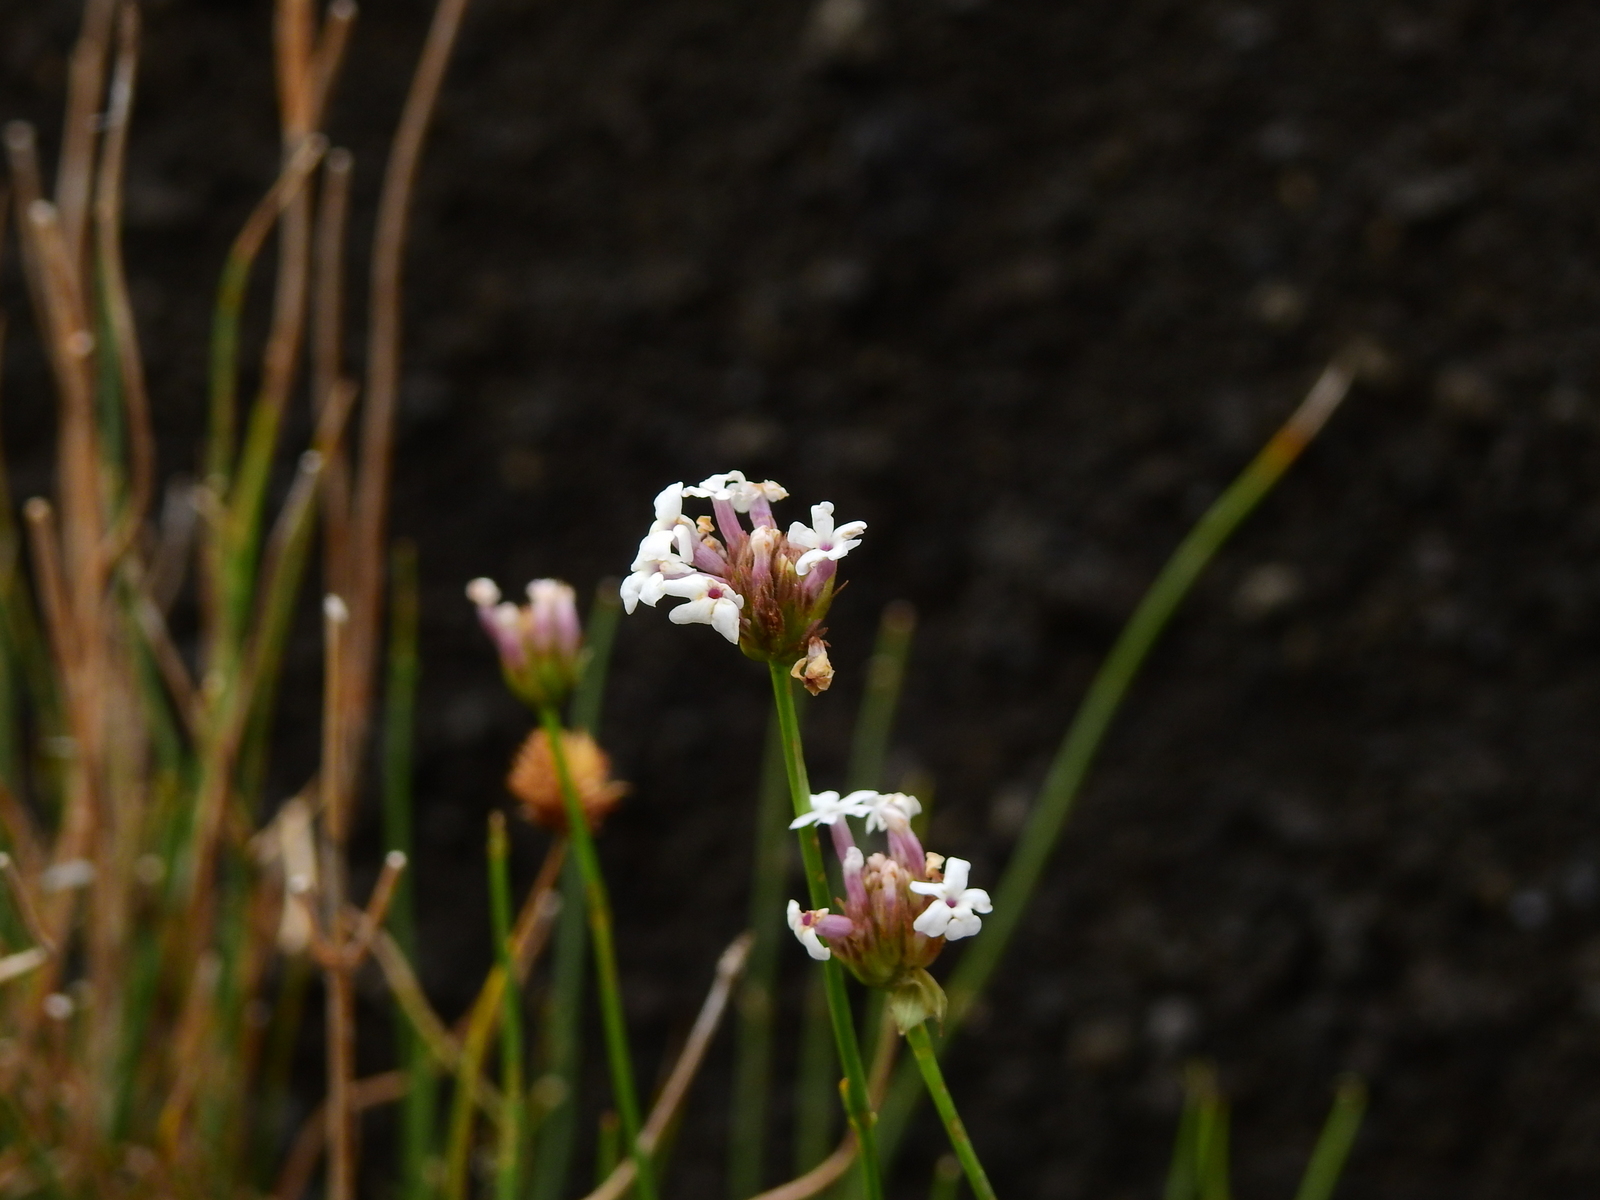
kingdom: Plantae
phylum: Tracheophyta
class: Magnoliopsida
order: Lamiales
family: Verbenaceae
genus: Junellia
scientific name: Junellia spathulata
